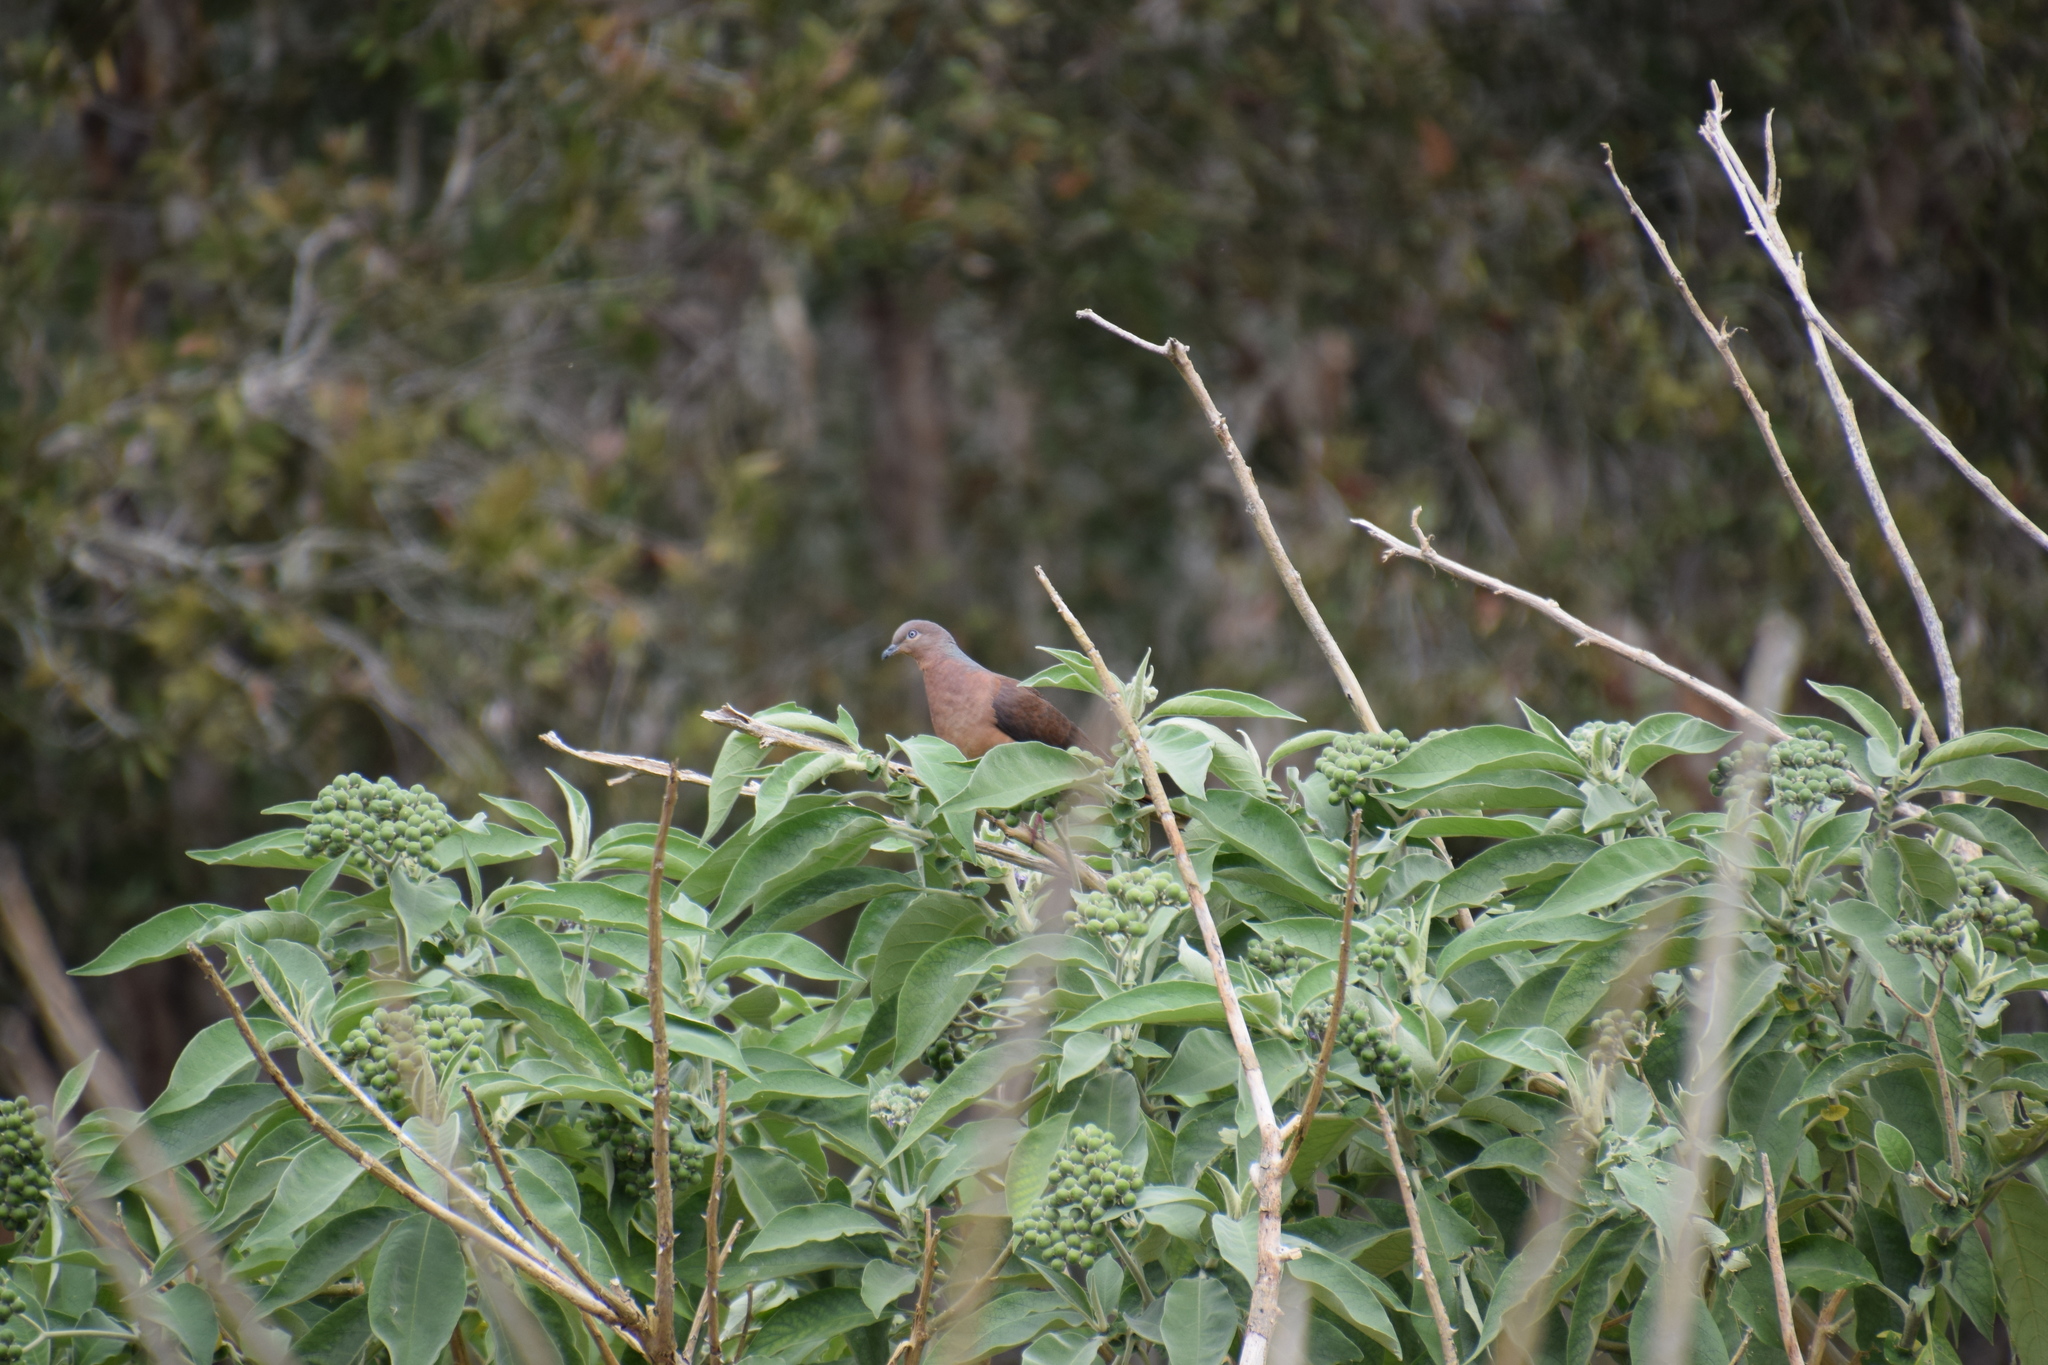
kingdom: Animalia
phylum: Chordata
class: Aves
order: Columbiformes
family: Columbidae
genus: Macropygia
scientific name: Macropygia phasianella
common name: Brown cuckoo-dove
